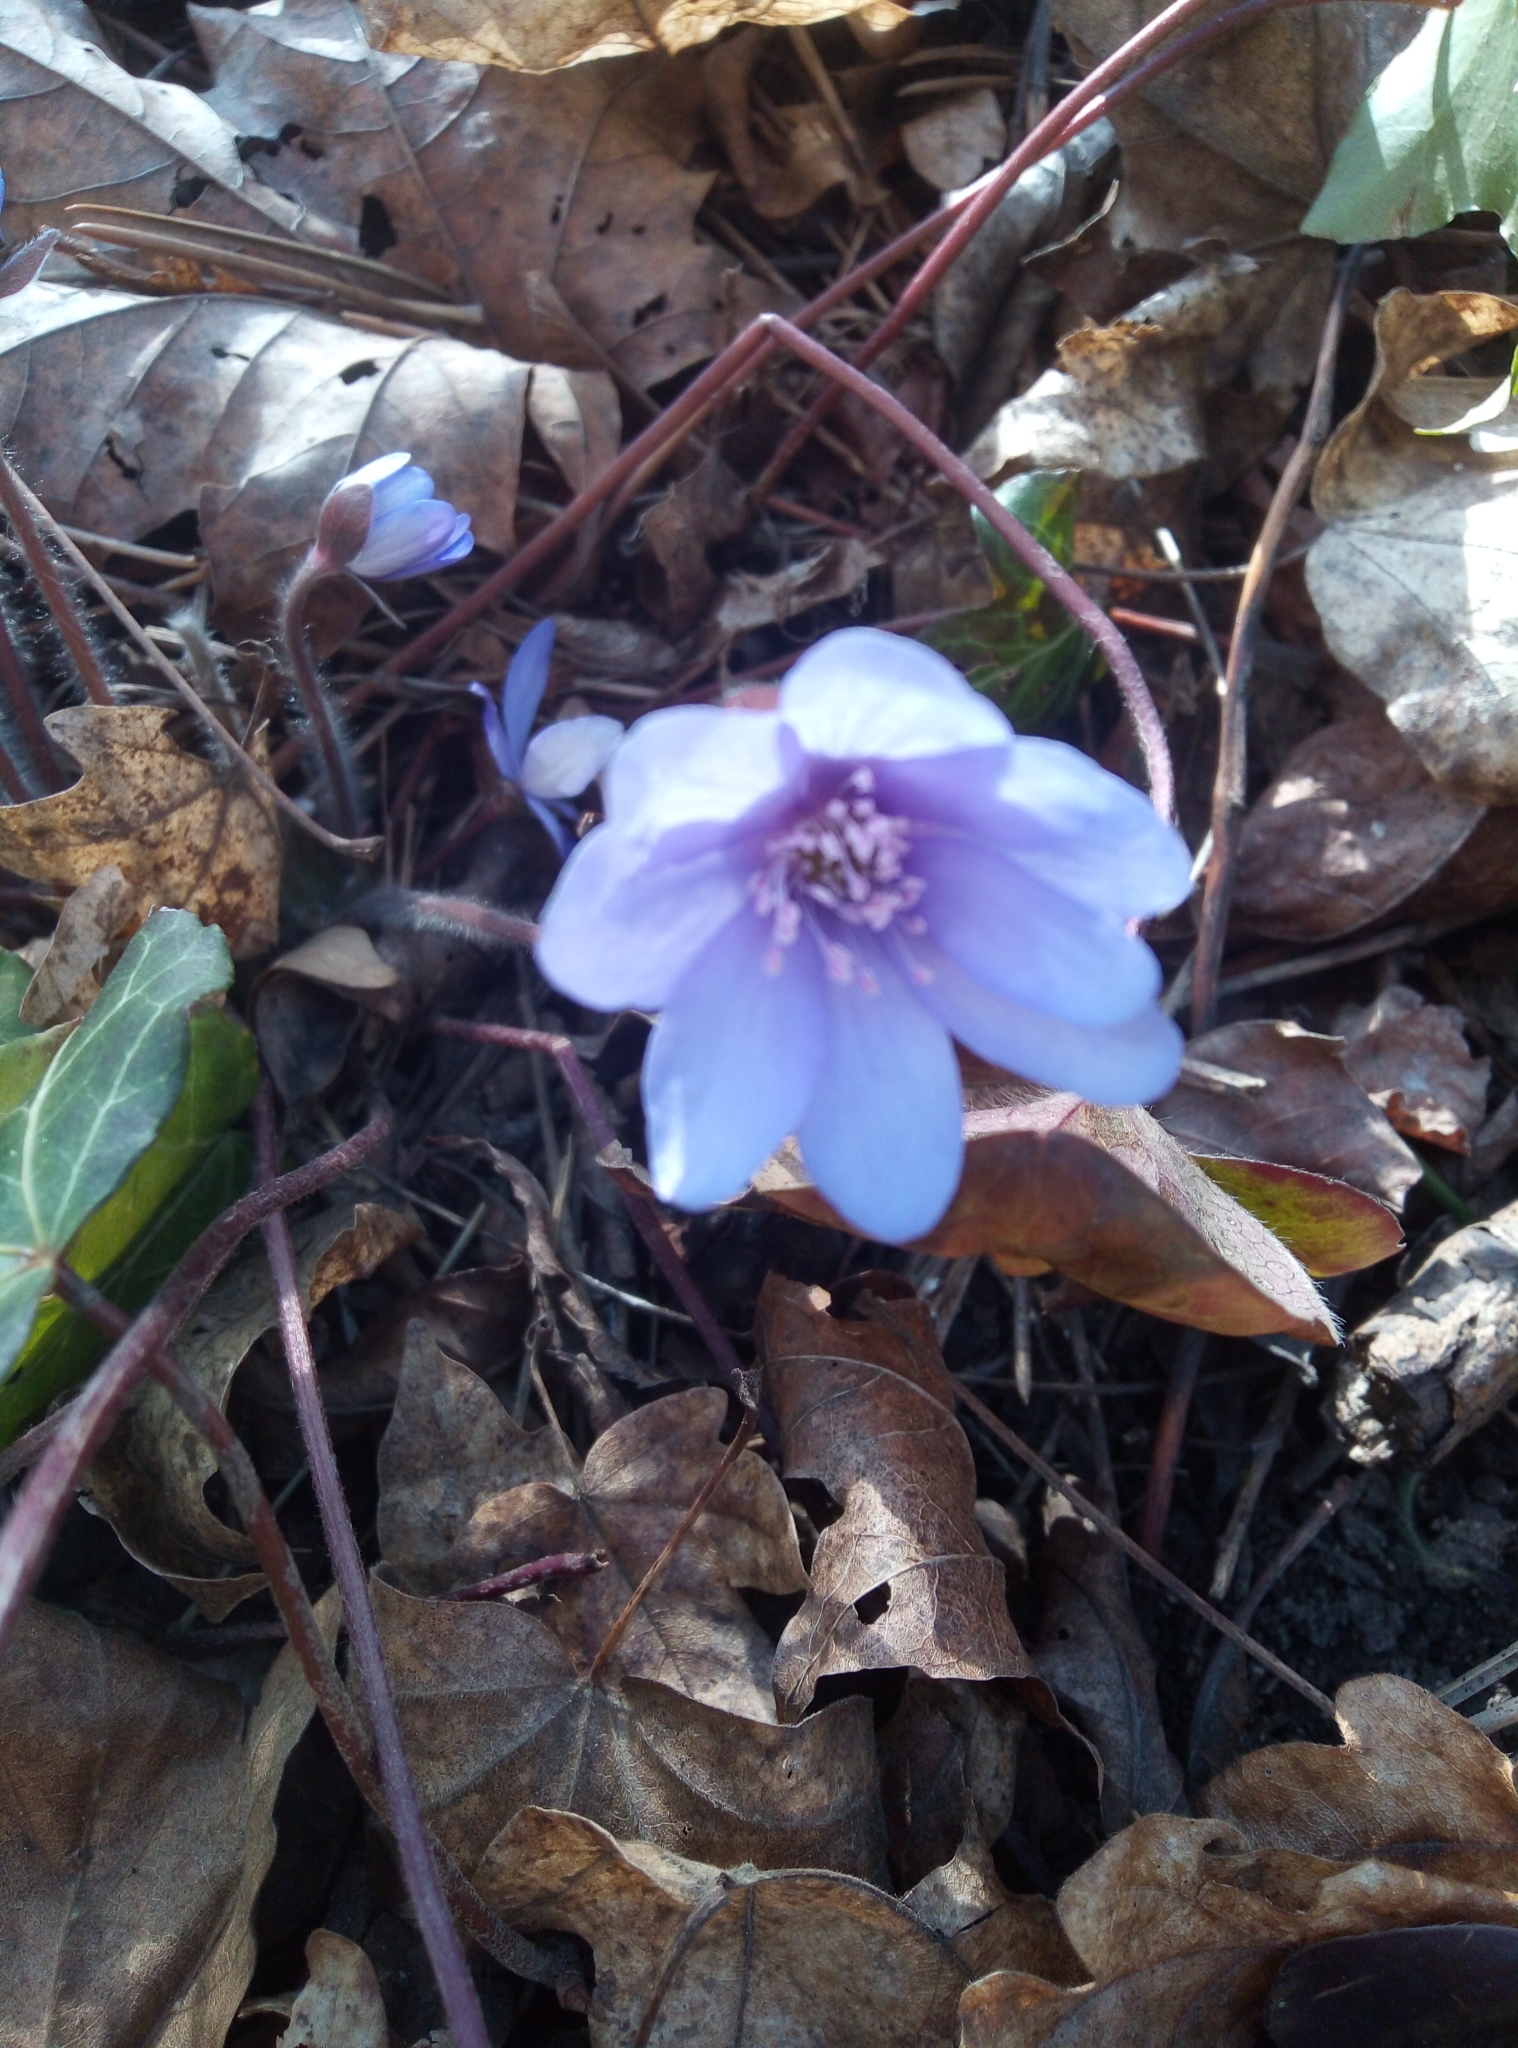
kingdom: Plantae
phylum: Tracheophyta
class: Magnoliopsida
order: Ranunculales
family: Ranunculaceae
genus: Hepatica
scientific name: Hepatica nobilis
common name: Liverleaf
